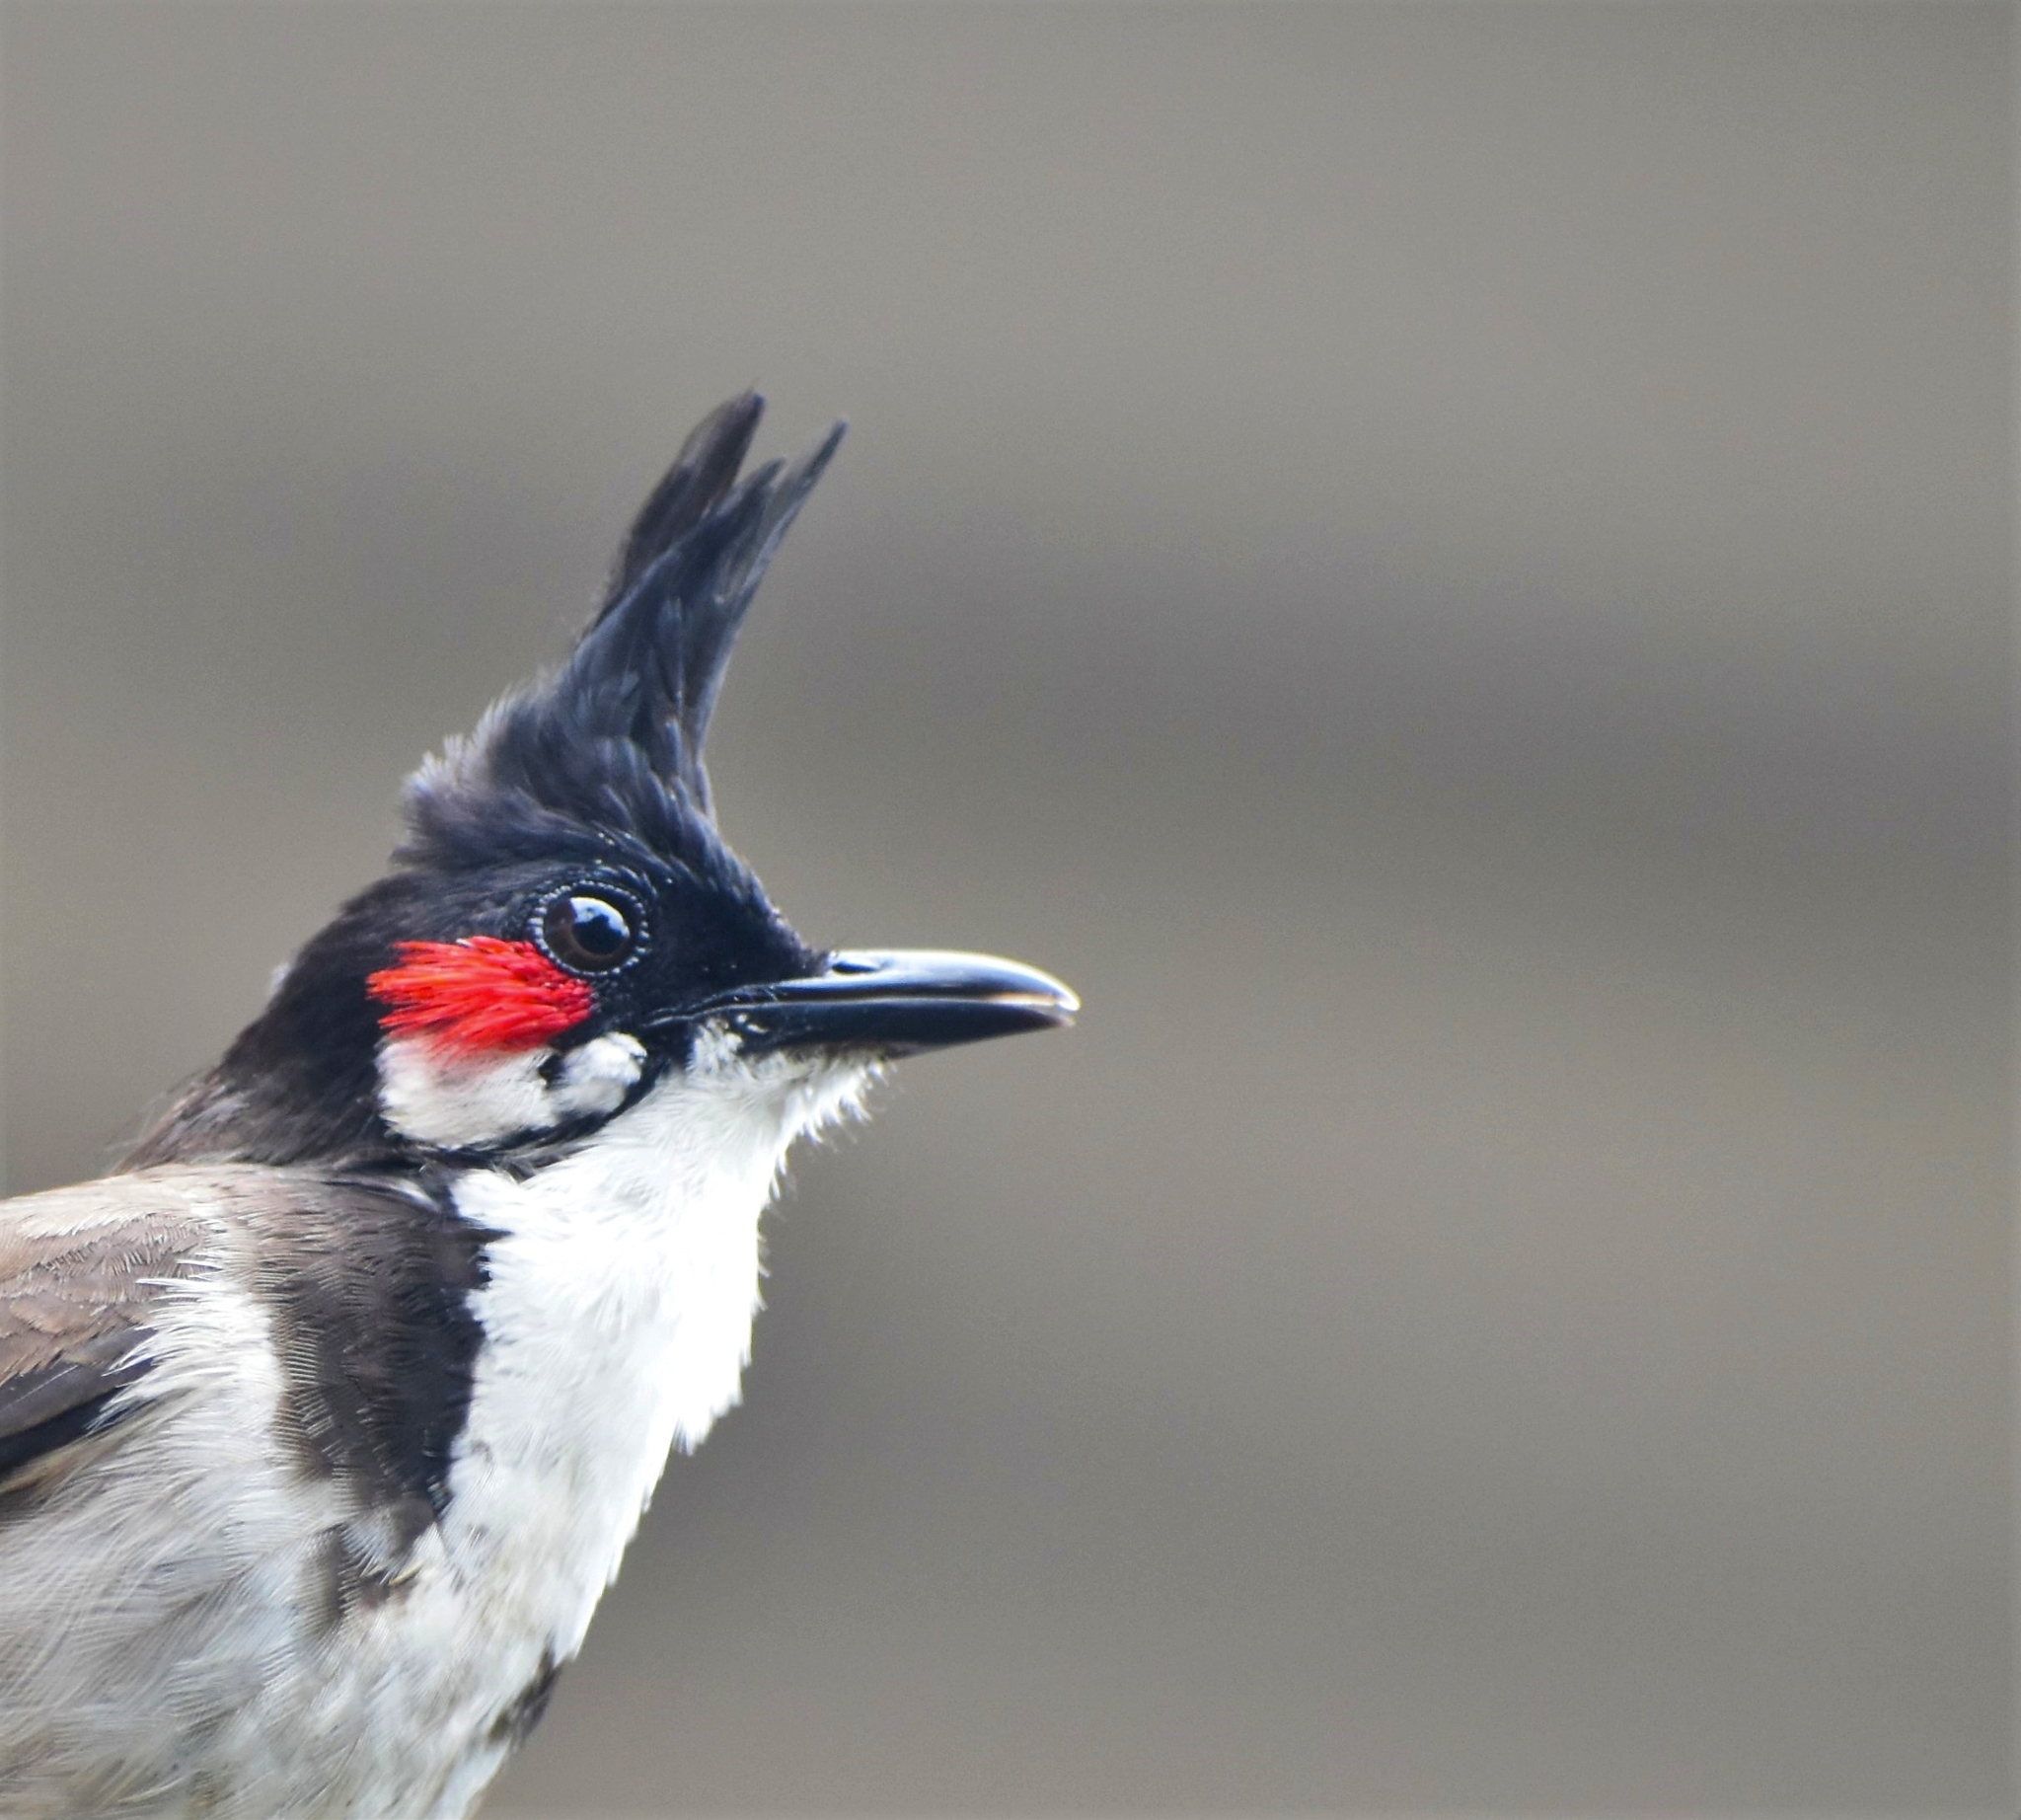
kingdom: Animalia
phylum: Chordata
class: Aves
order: Passeriformes
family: Pycnonotidae
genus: Pycnonotus
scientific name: Pycnonotus jocosus
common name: Red-whiskered bulbul
